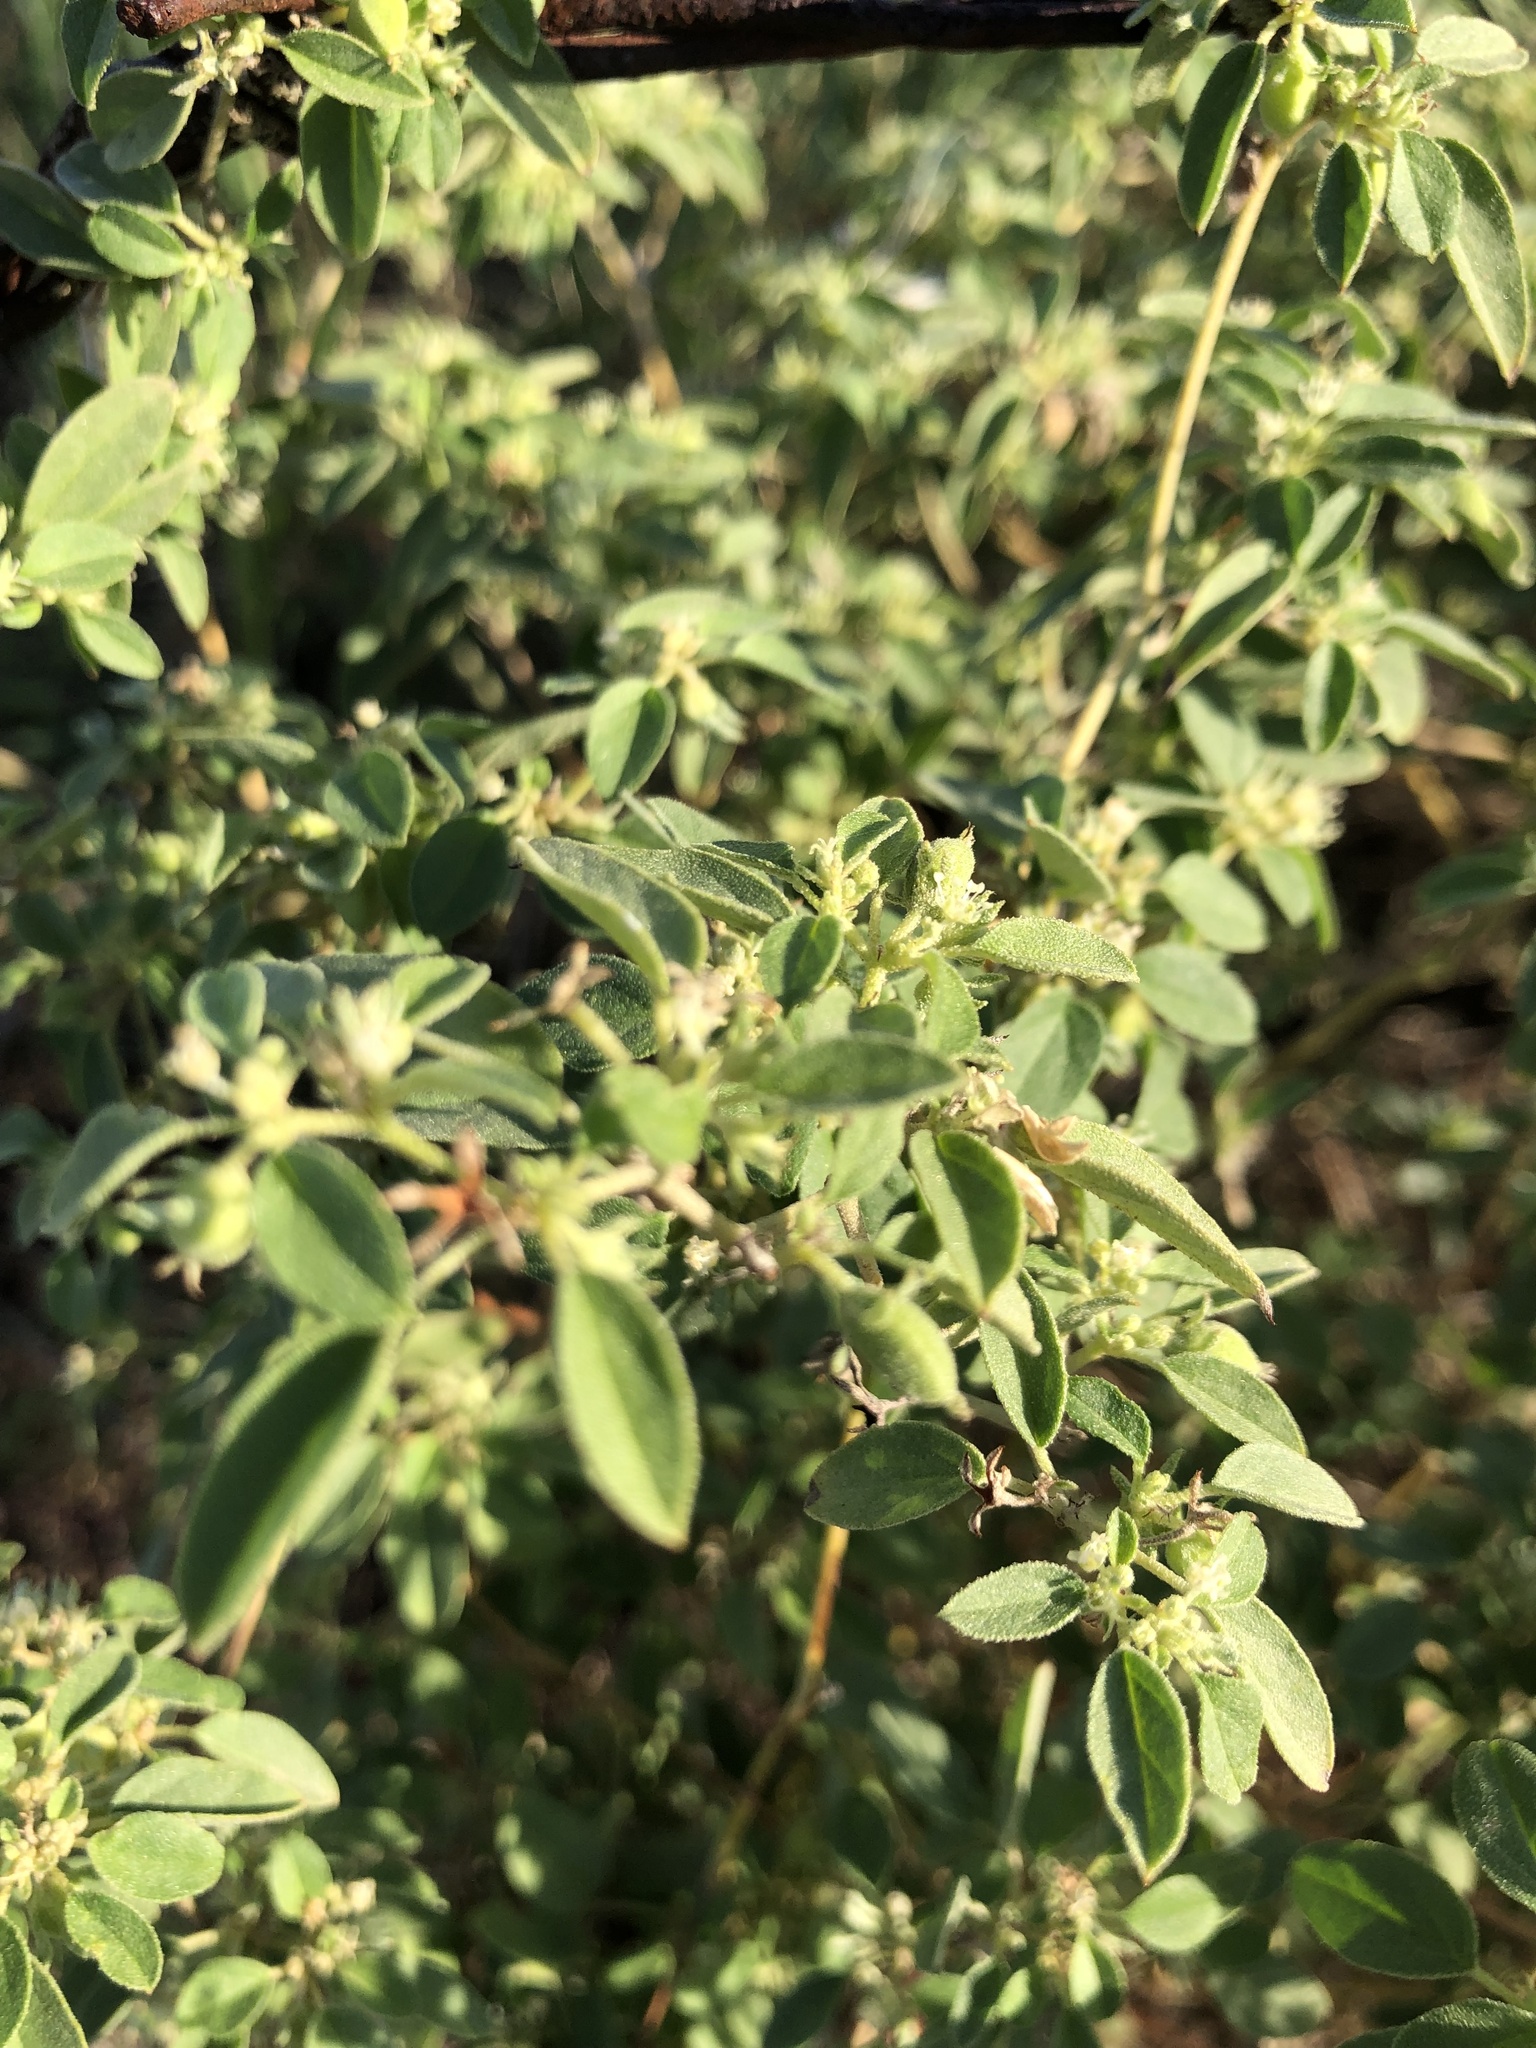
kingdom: Plantae
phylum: Tracheophyta
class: Magnoliopsida
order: Malpighiales
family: Euphorbiaceae
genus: Croton
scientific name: Croton monanthogynus
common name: One-seed croton
